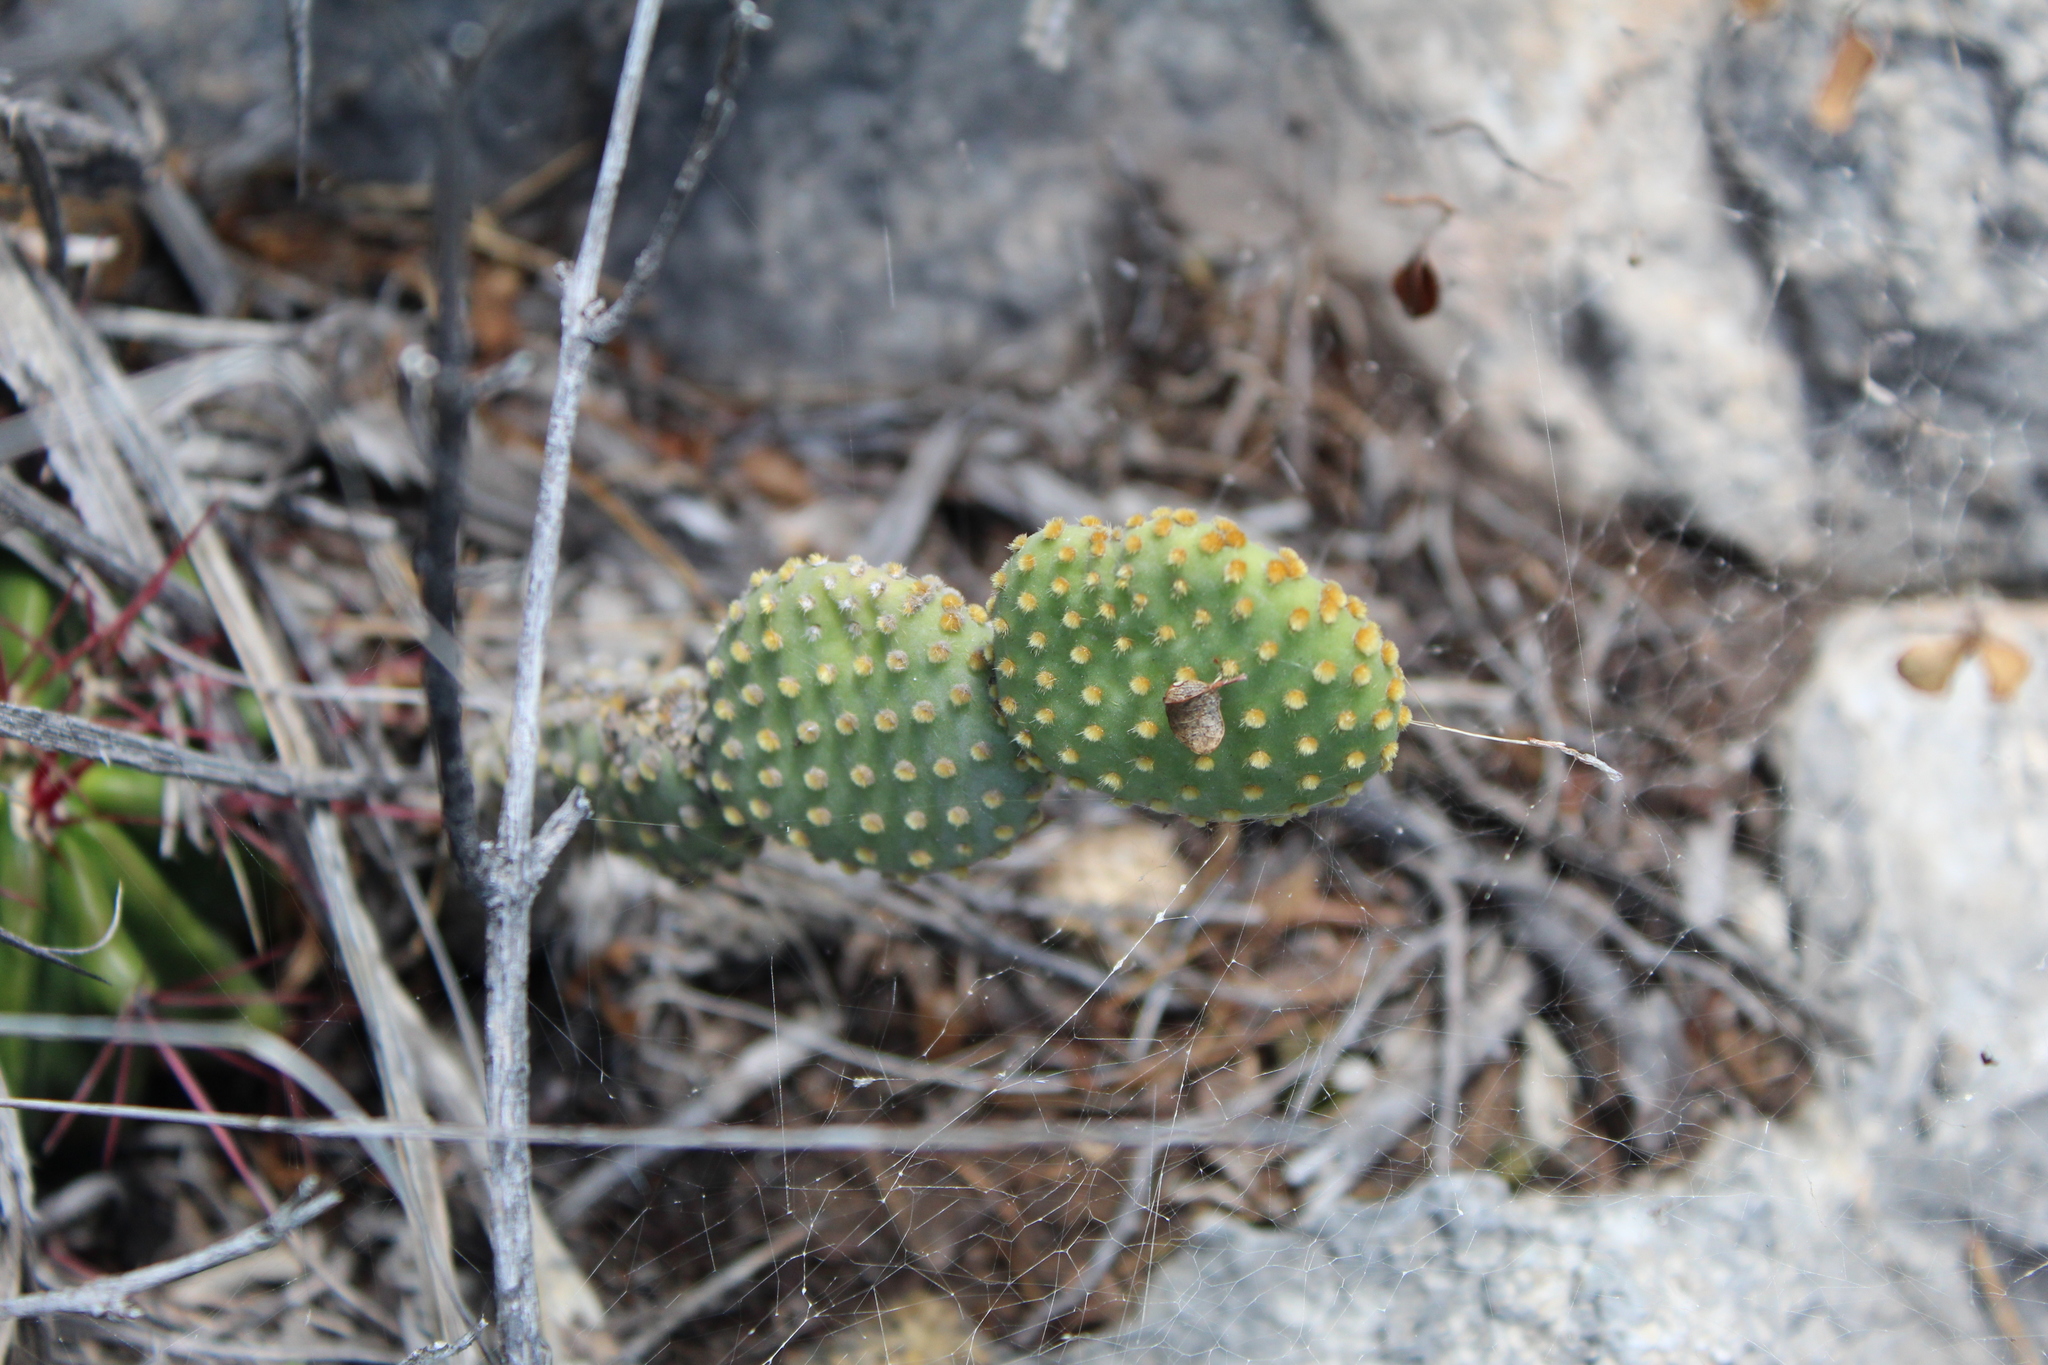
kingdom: Plantae
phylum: Tracheophyta
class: Magnoliopsida
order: Caryophyllales
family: Cactaceae
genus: Opuntia
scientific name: Opuntia microdasys
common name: Angel's-wings
